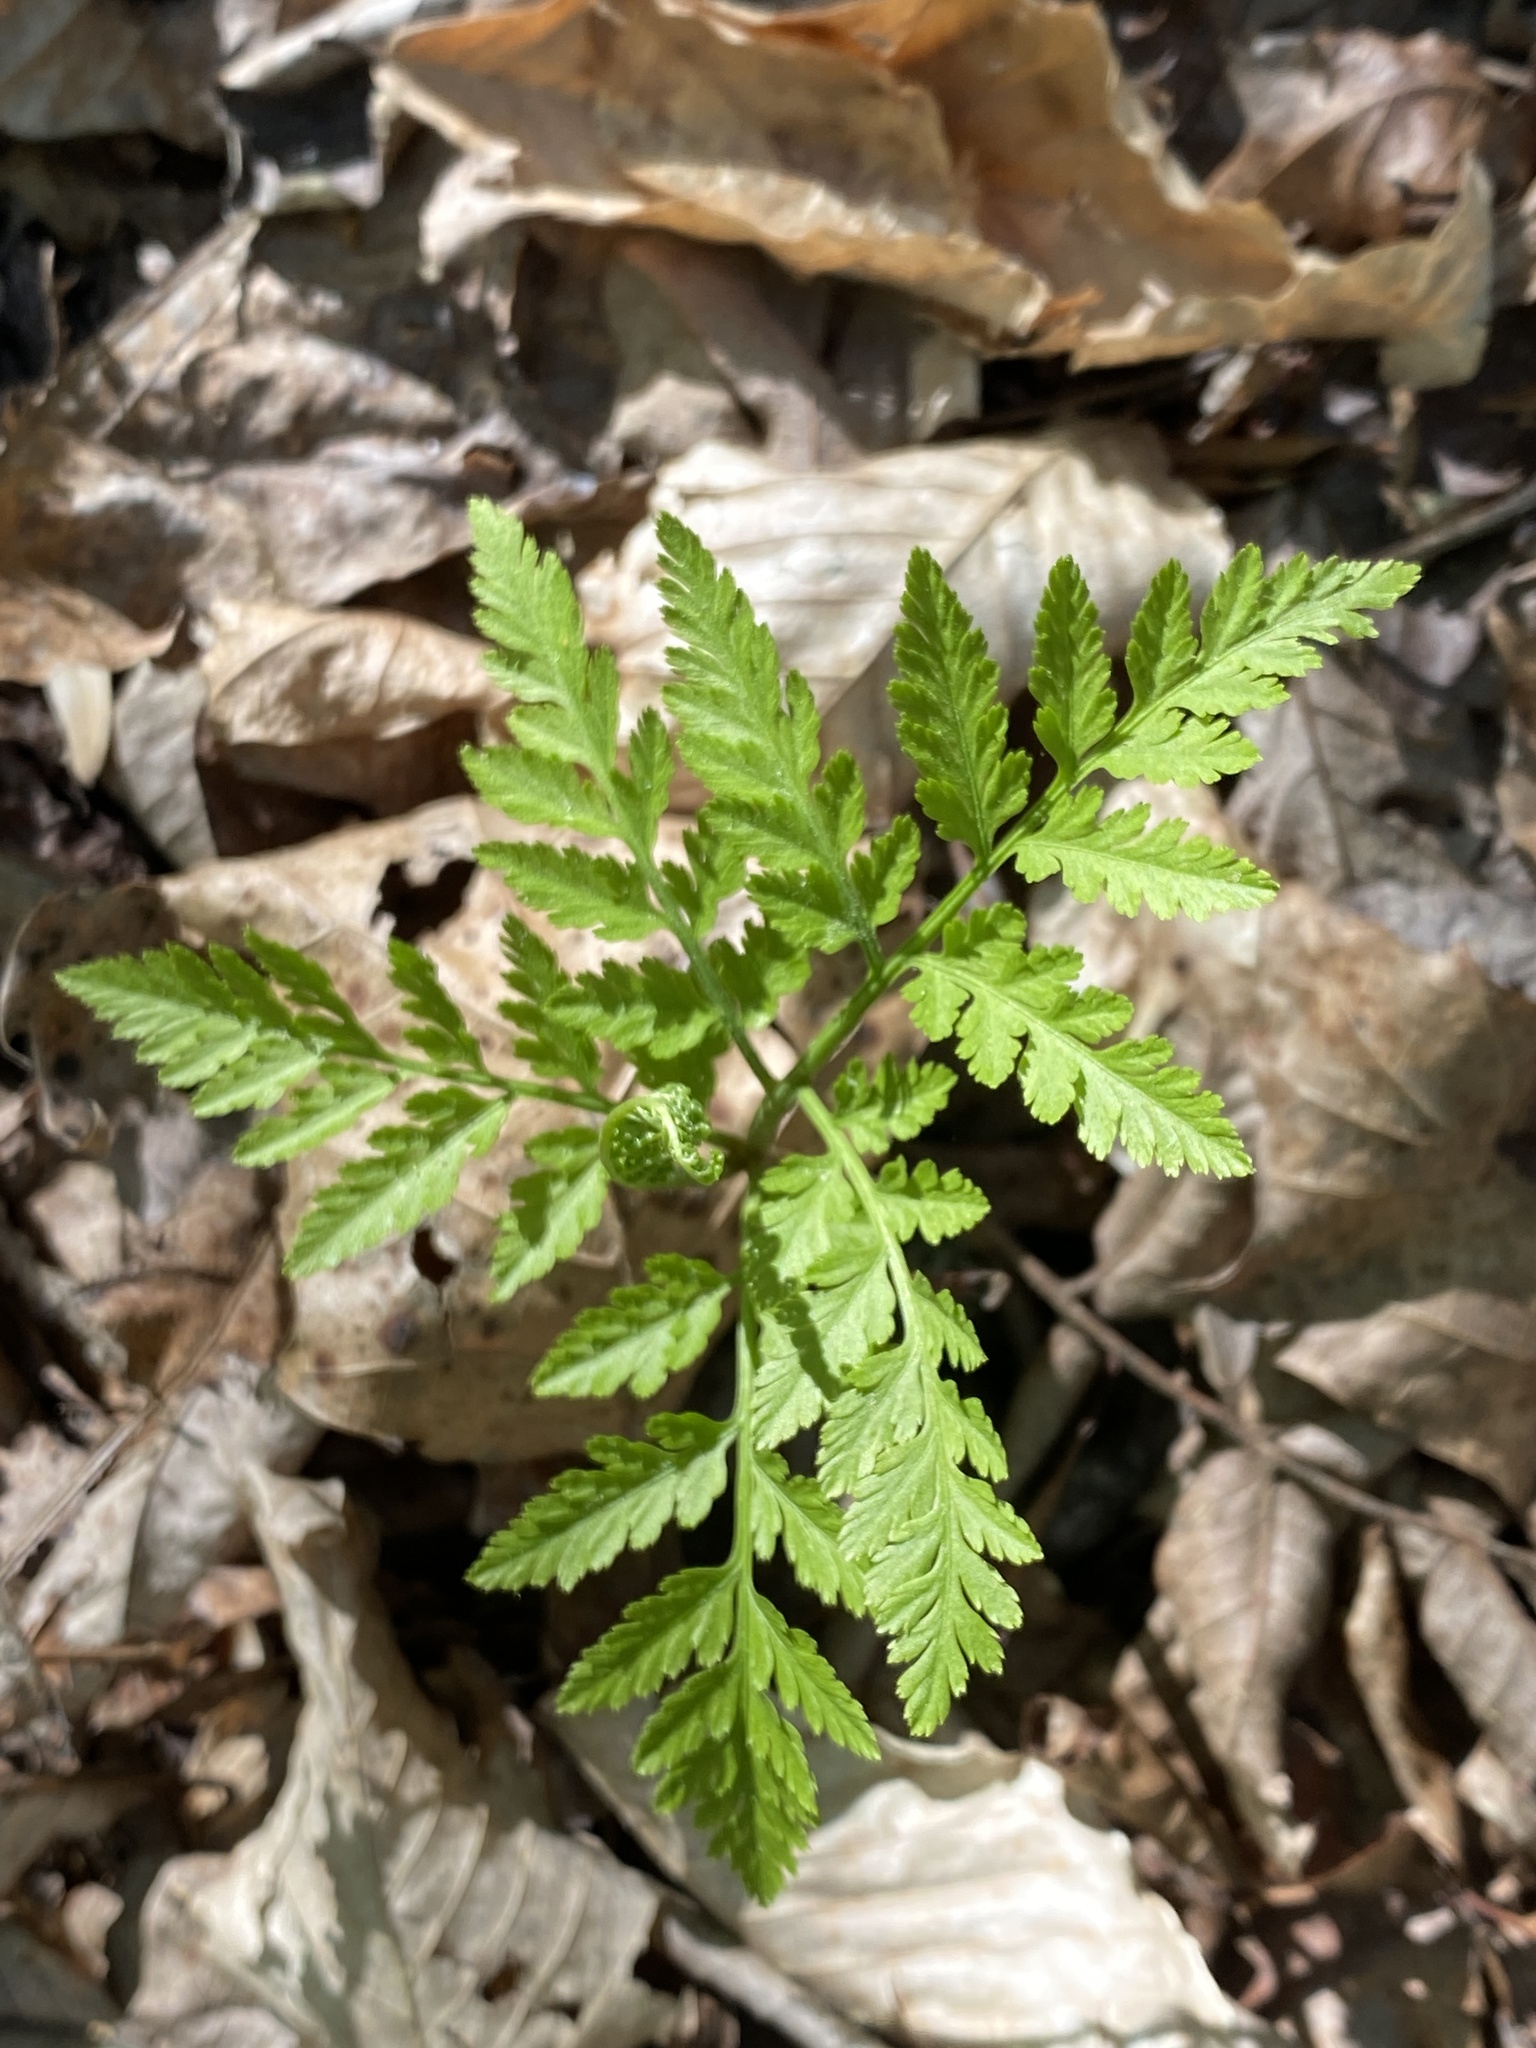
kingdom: Plantae
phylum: Tracheophyta
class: Polypodiopsida
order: Ophioglossales
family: Ophioglossaceae
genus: Botrypus
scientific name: Botrypus virginianus
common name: Common grapefern
